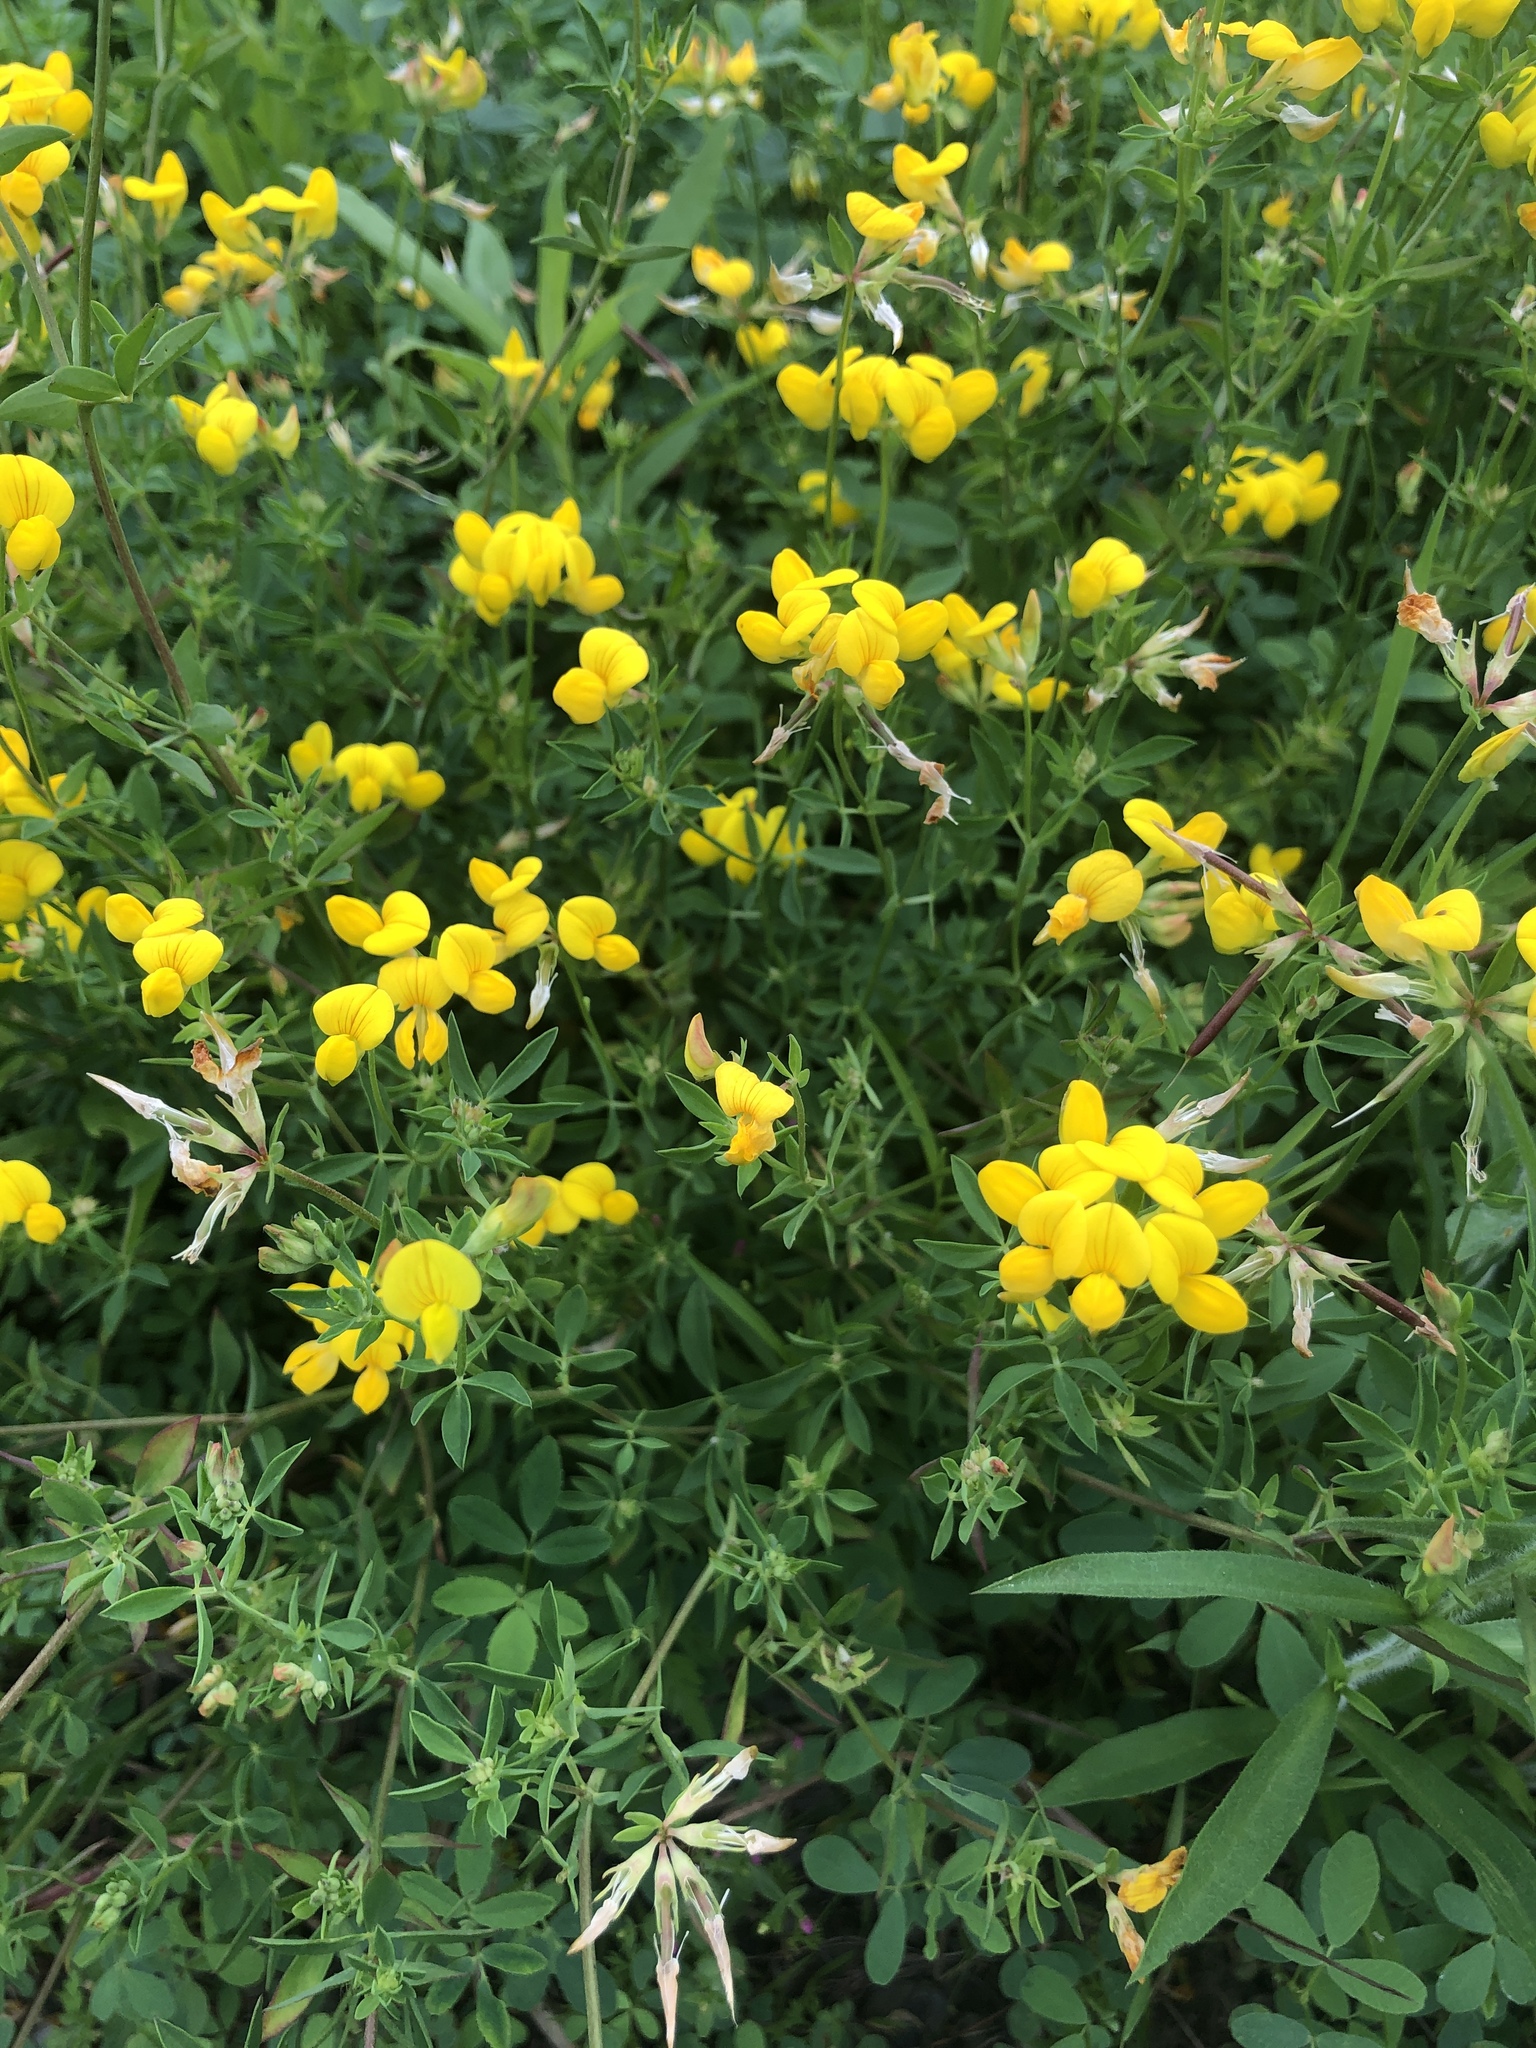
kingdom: Plantae
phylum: Tracheophyta
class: Magnoliopsida
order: Fabales
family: Fabaceae
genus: Lotus
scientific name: Lotus corniculatus
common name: Common bird's-foot-trefoil
